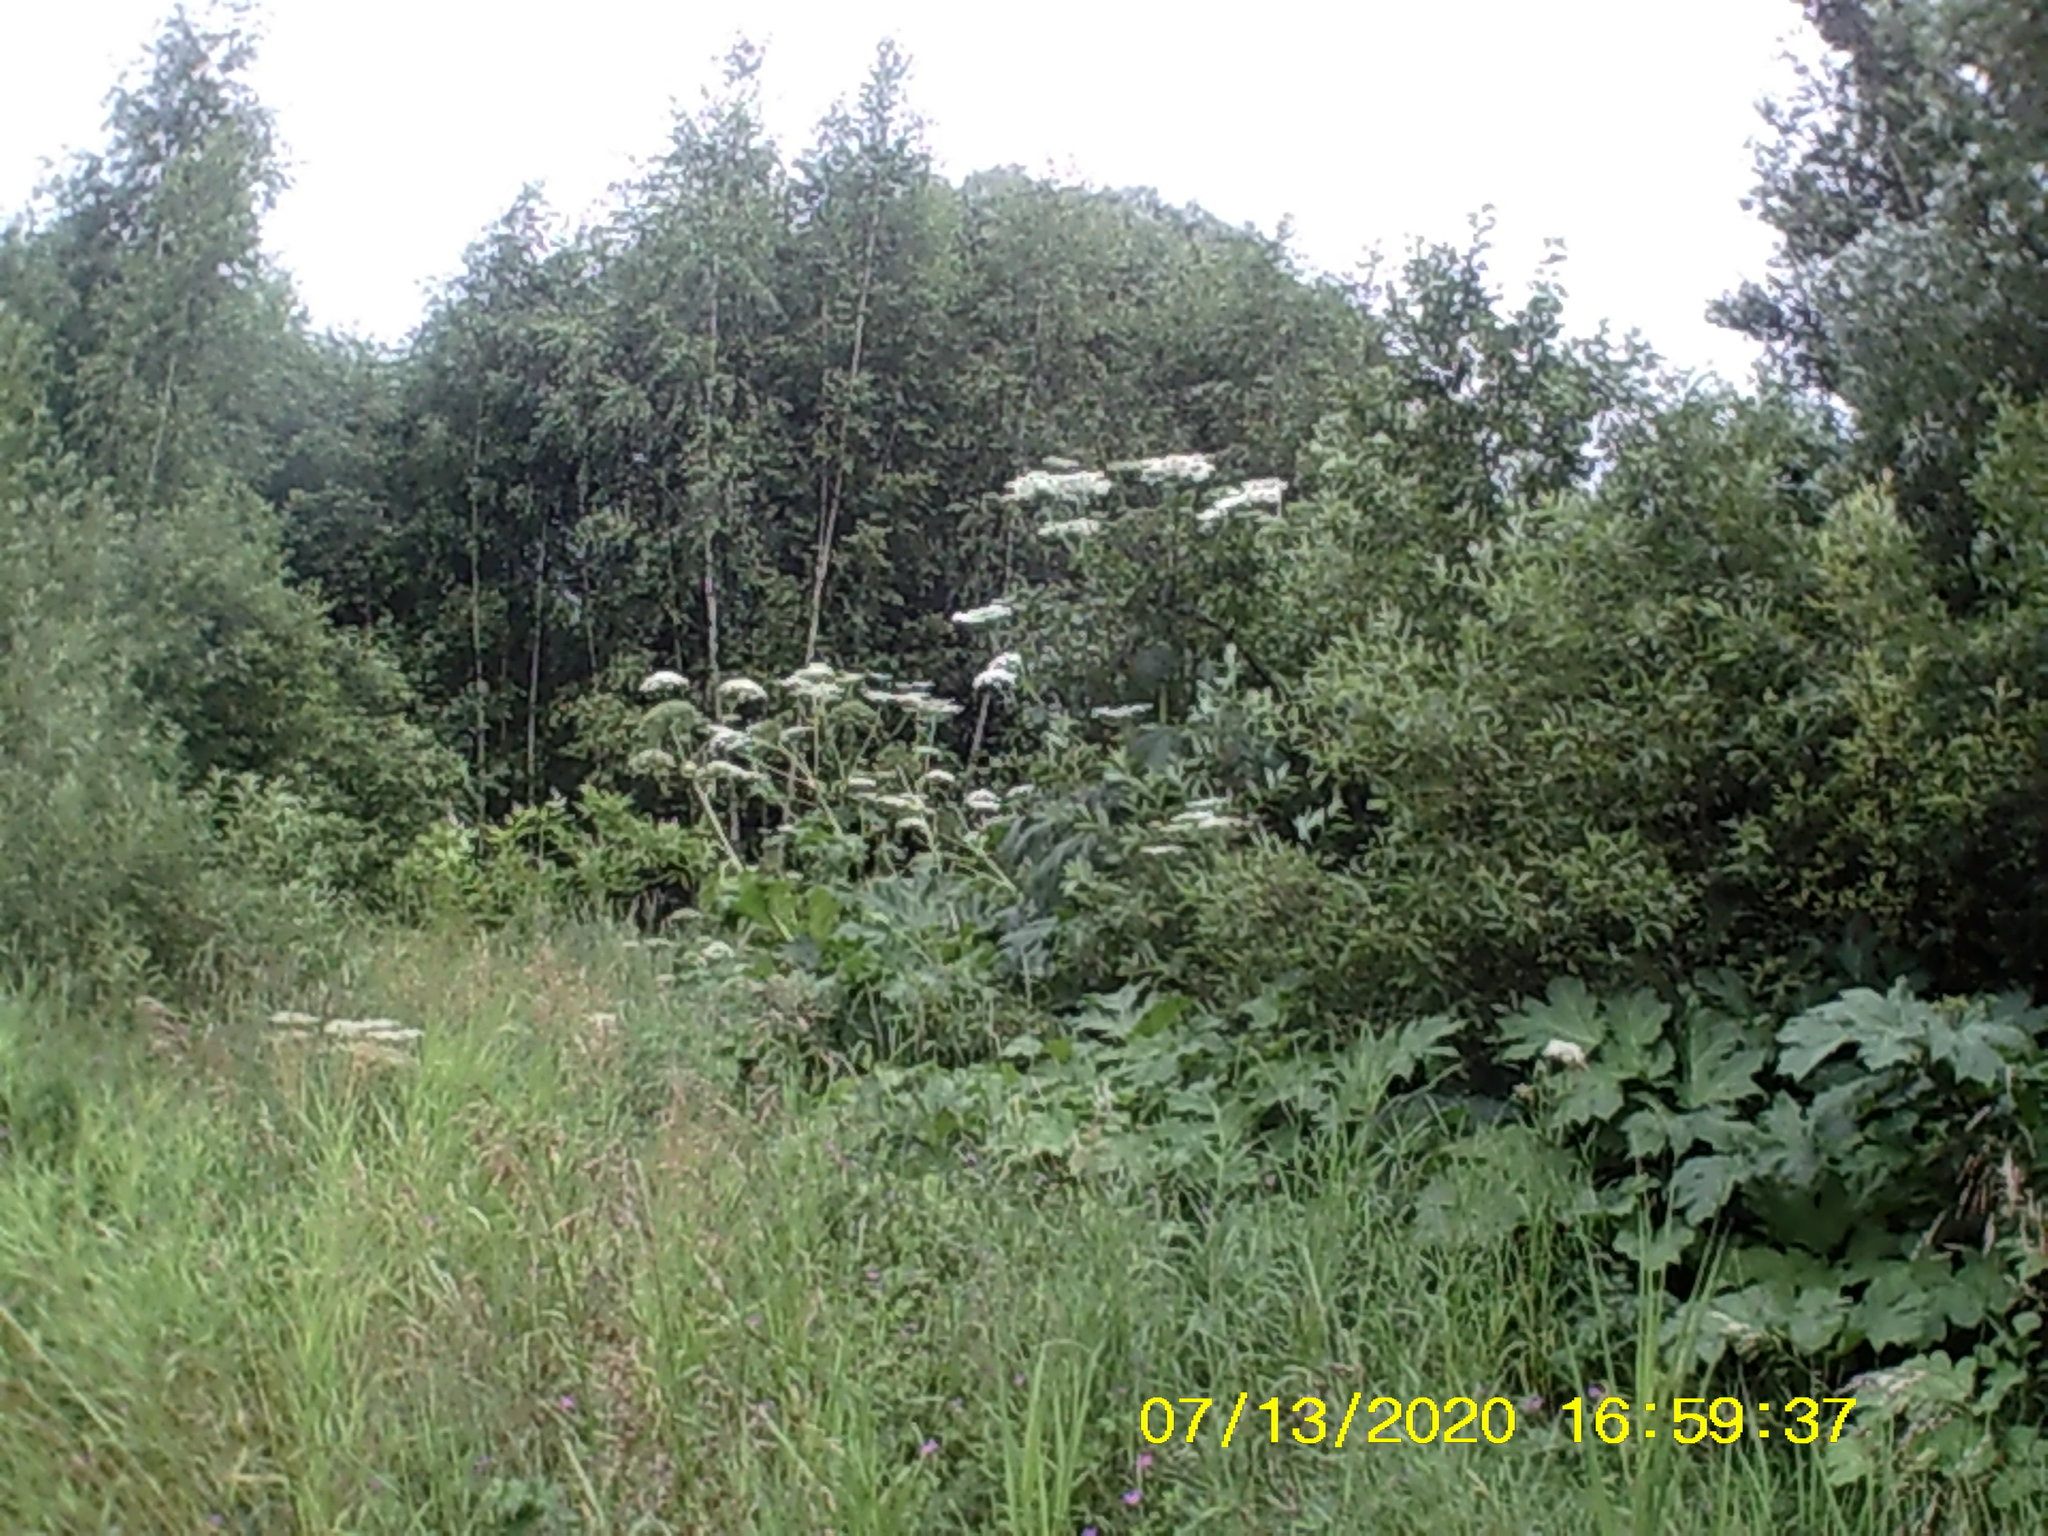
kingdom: Plantae
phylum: Tracheophyta
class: Magnoliopsida
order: Apiales
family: Apiaceae
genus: Heracleum
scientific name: Heracleum sosnowskyi
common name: Sosnowsky's hogweed
